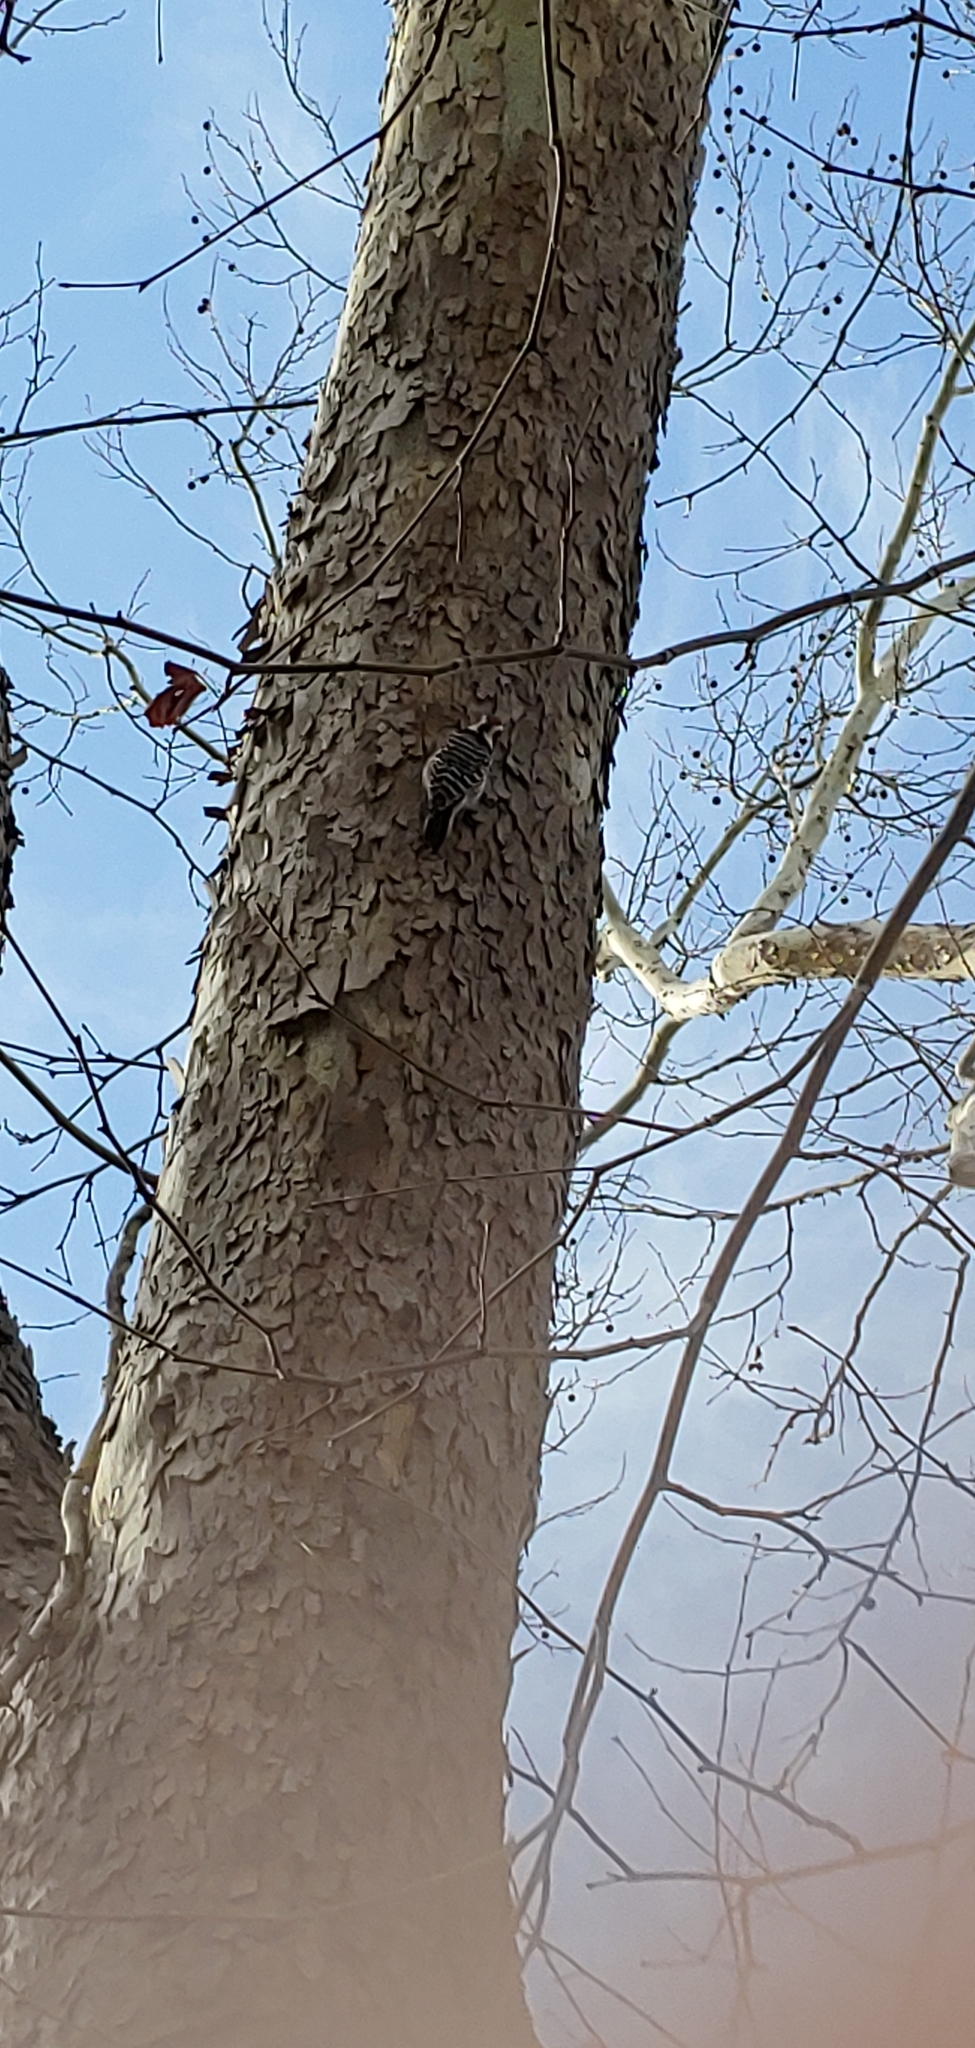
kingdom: Animalia
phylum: Chordata
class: Aves
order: Piciformes
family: Picidae
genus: Dryobates
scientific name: Dryobates nuttallii
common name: Nuttall's woodpecker
